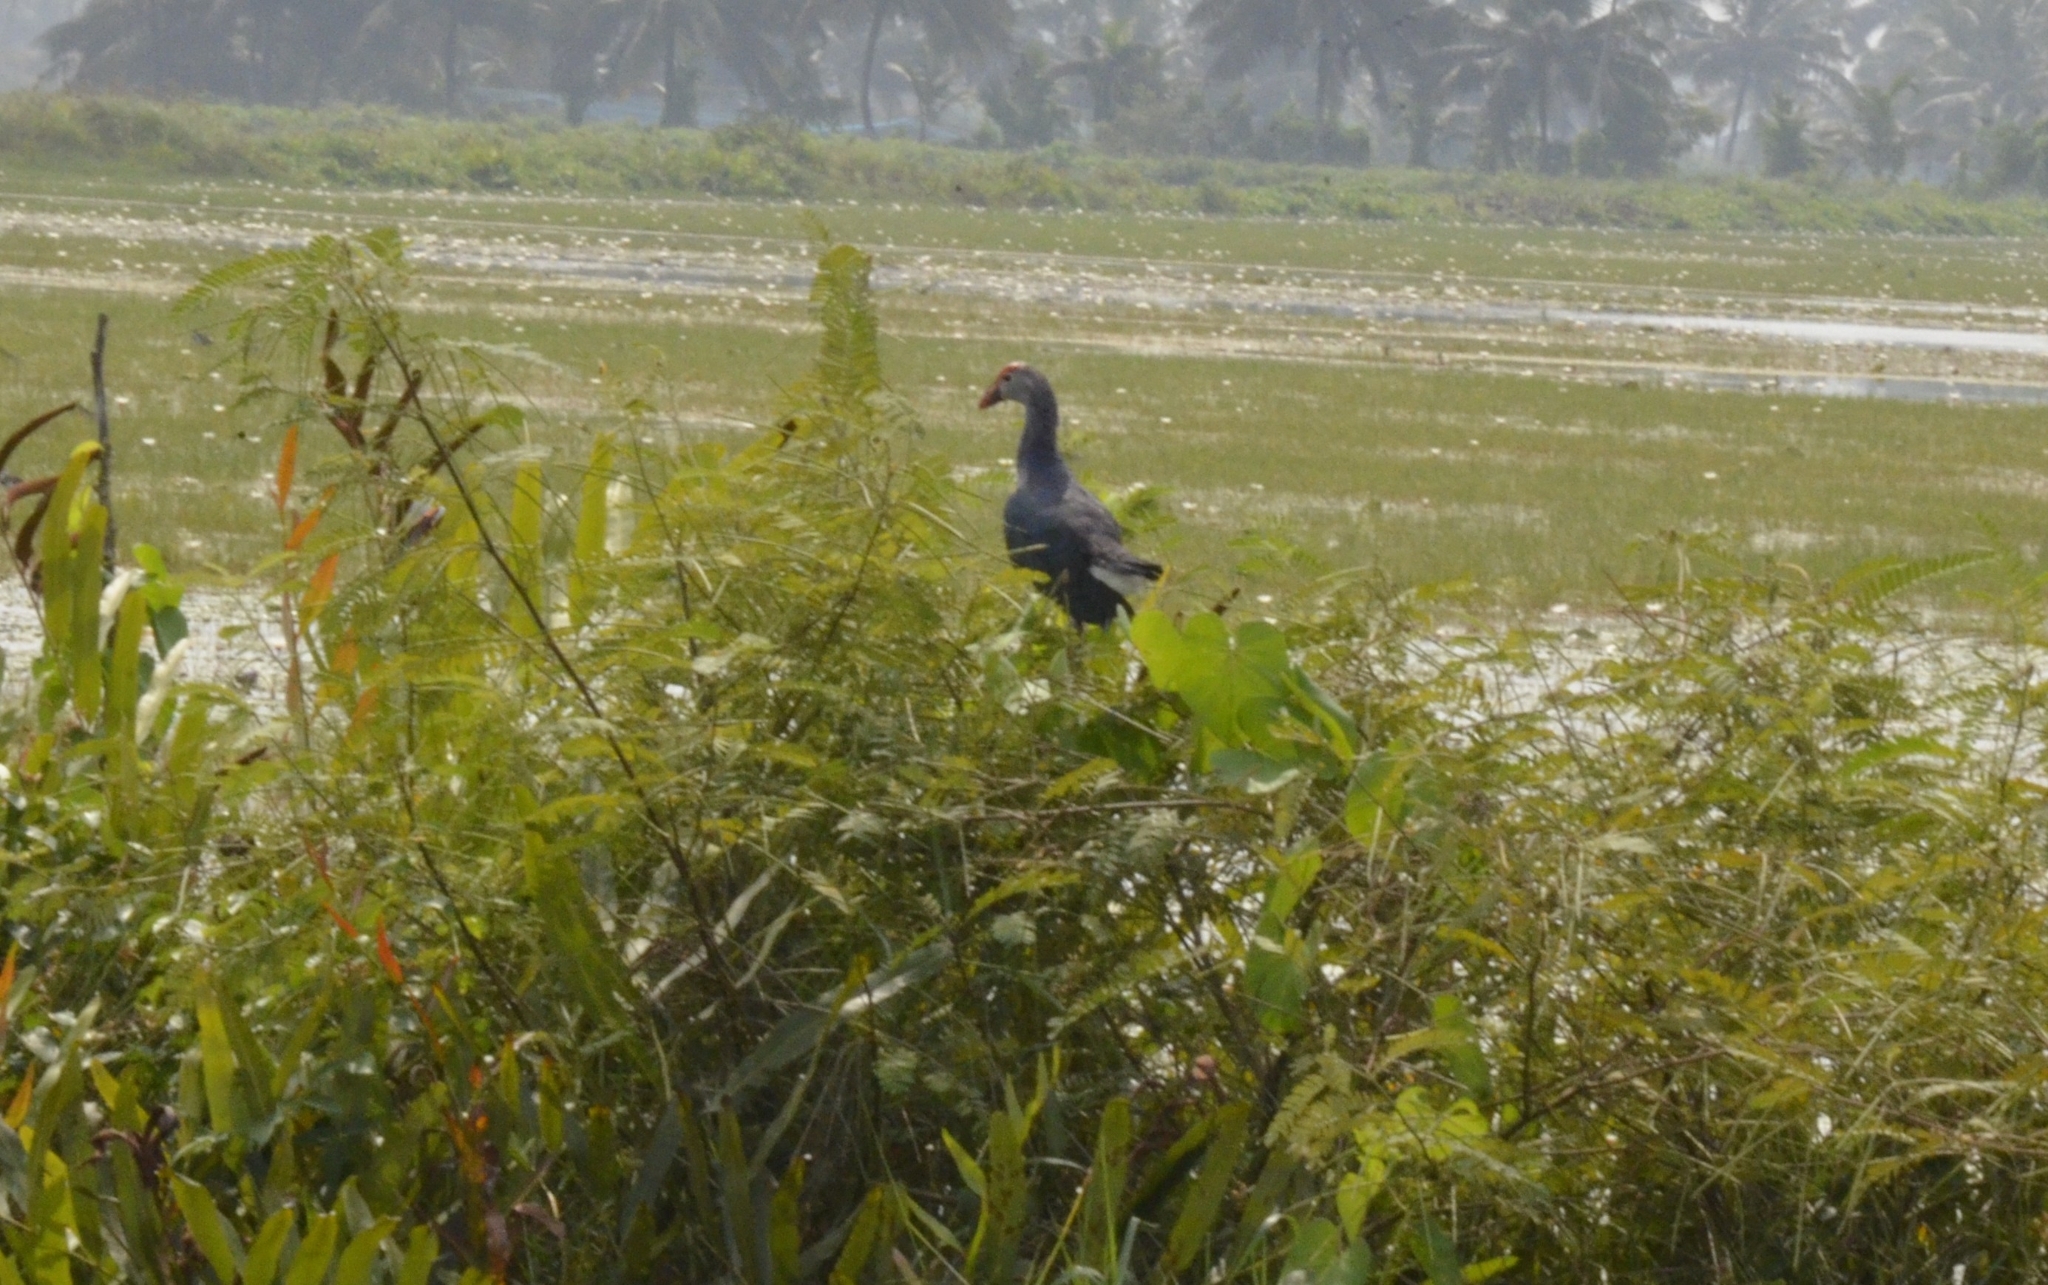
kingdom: Animalia
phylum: Chordata
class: Aves
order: Gruiformes
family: Rallidae
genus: Porphyrio
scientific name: Porphyrio porphyrio
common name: Purple swamphen
